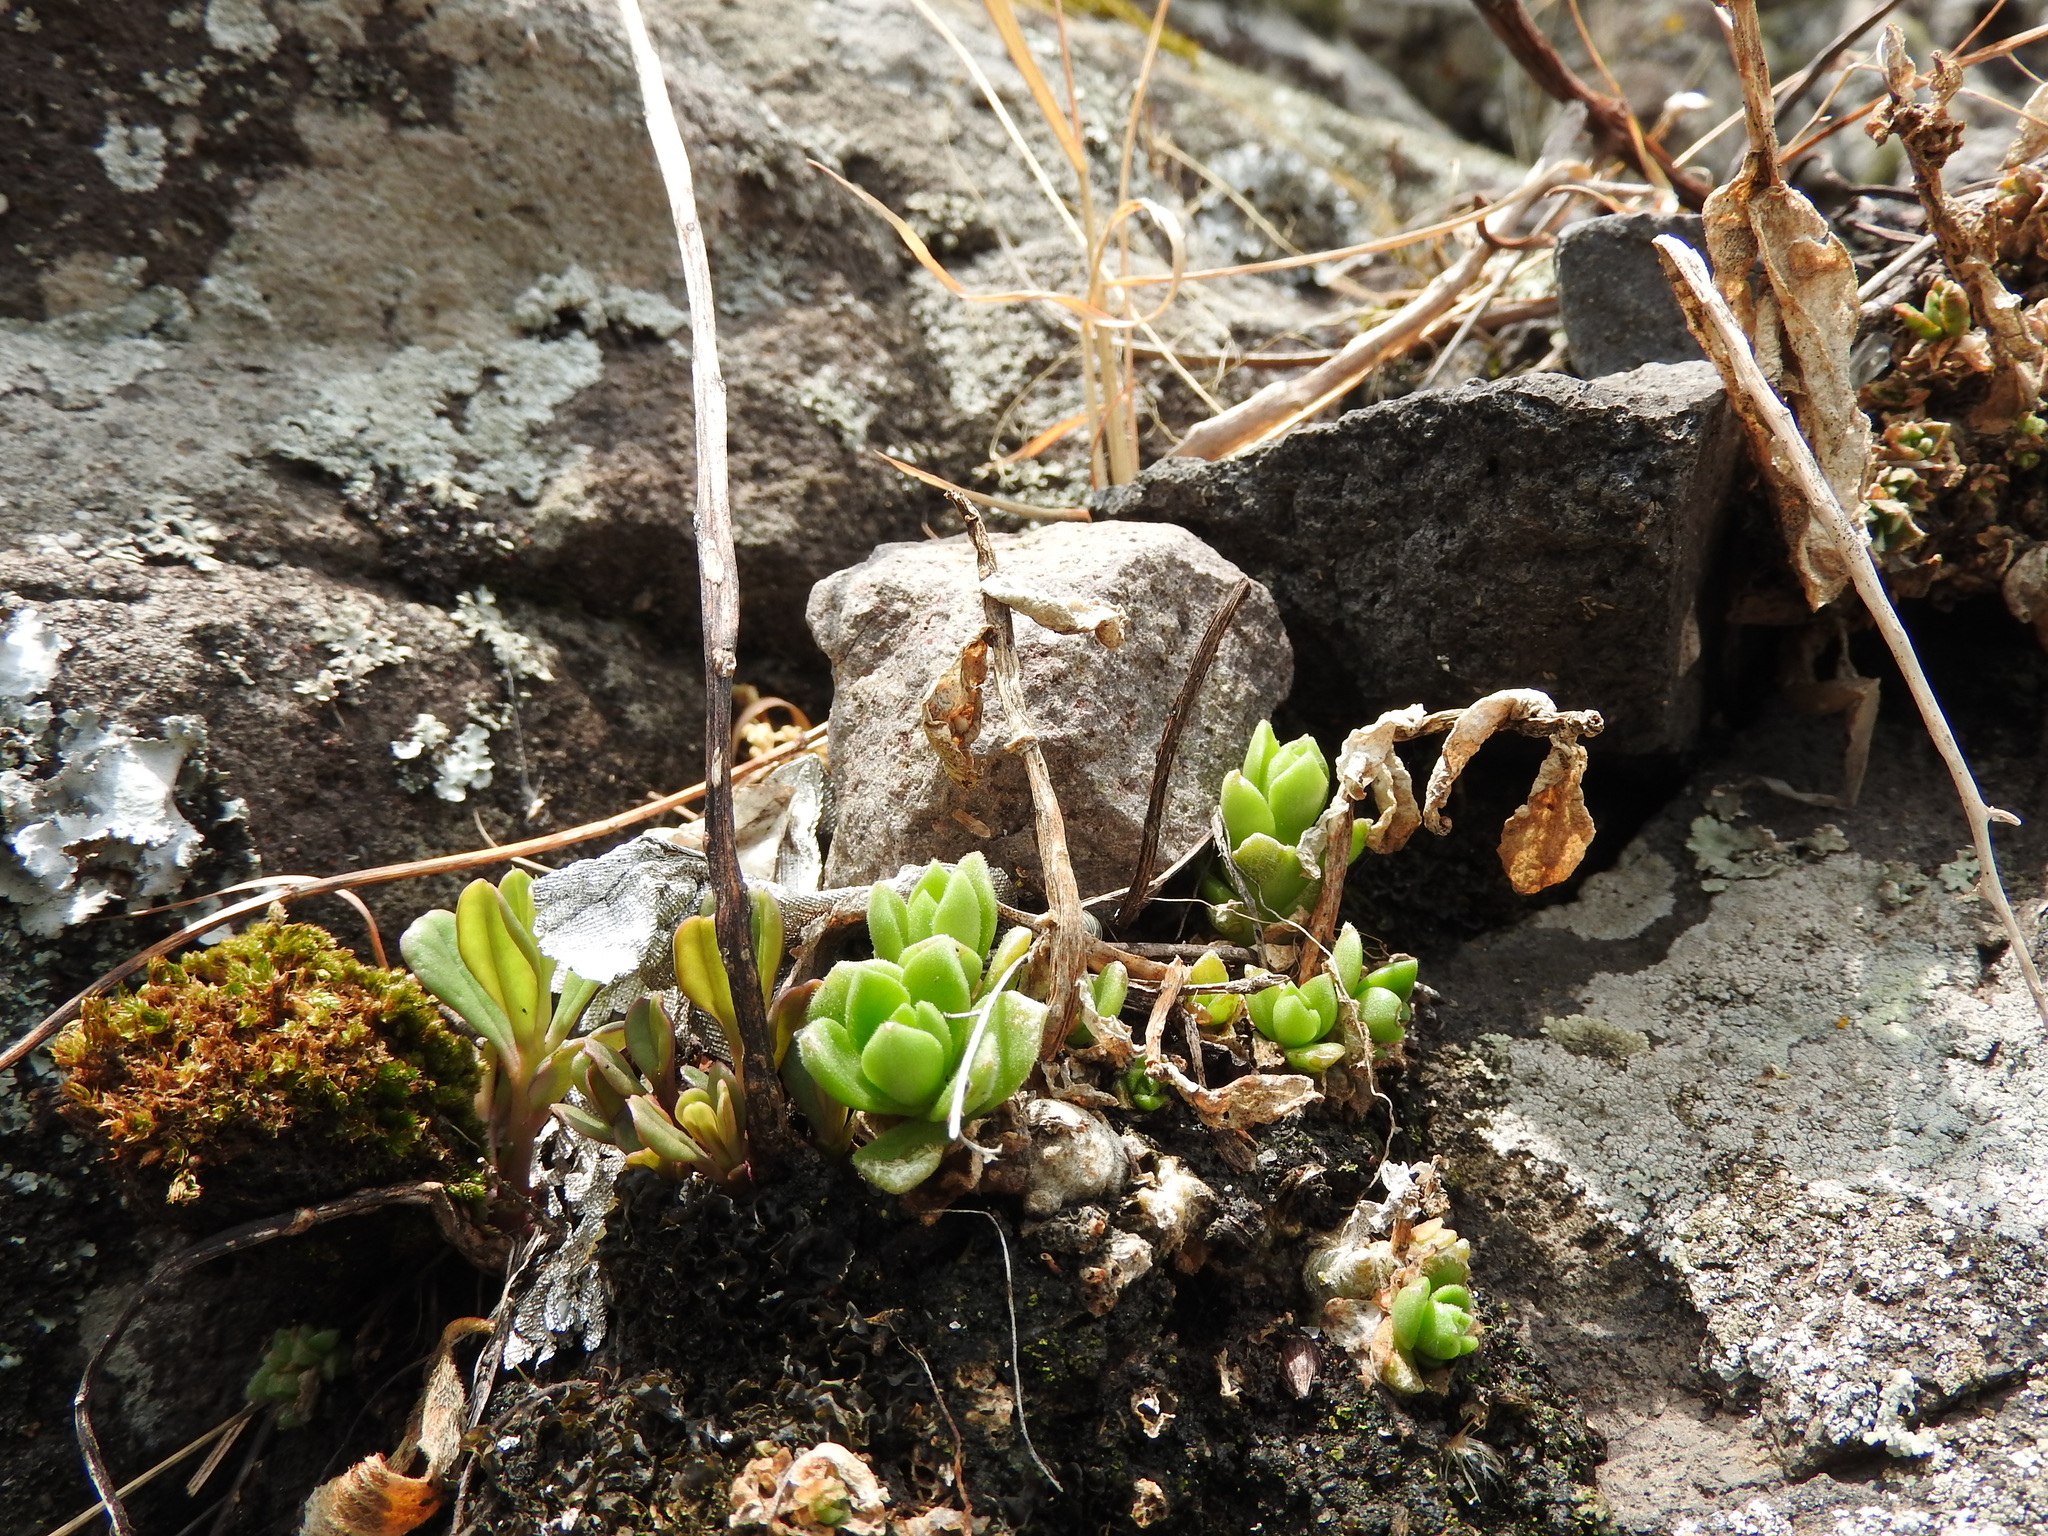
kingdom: Plantae
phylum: Tracheophyta
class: Magnoliopsida
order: Saxifragales
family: Crassulaceae
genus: Sedum
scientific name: Sedum ebracteatum
